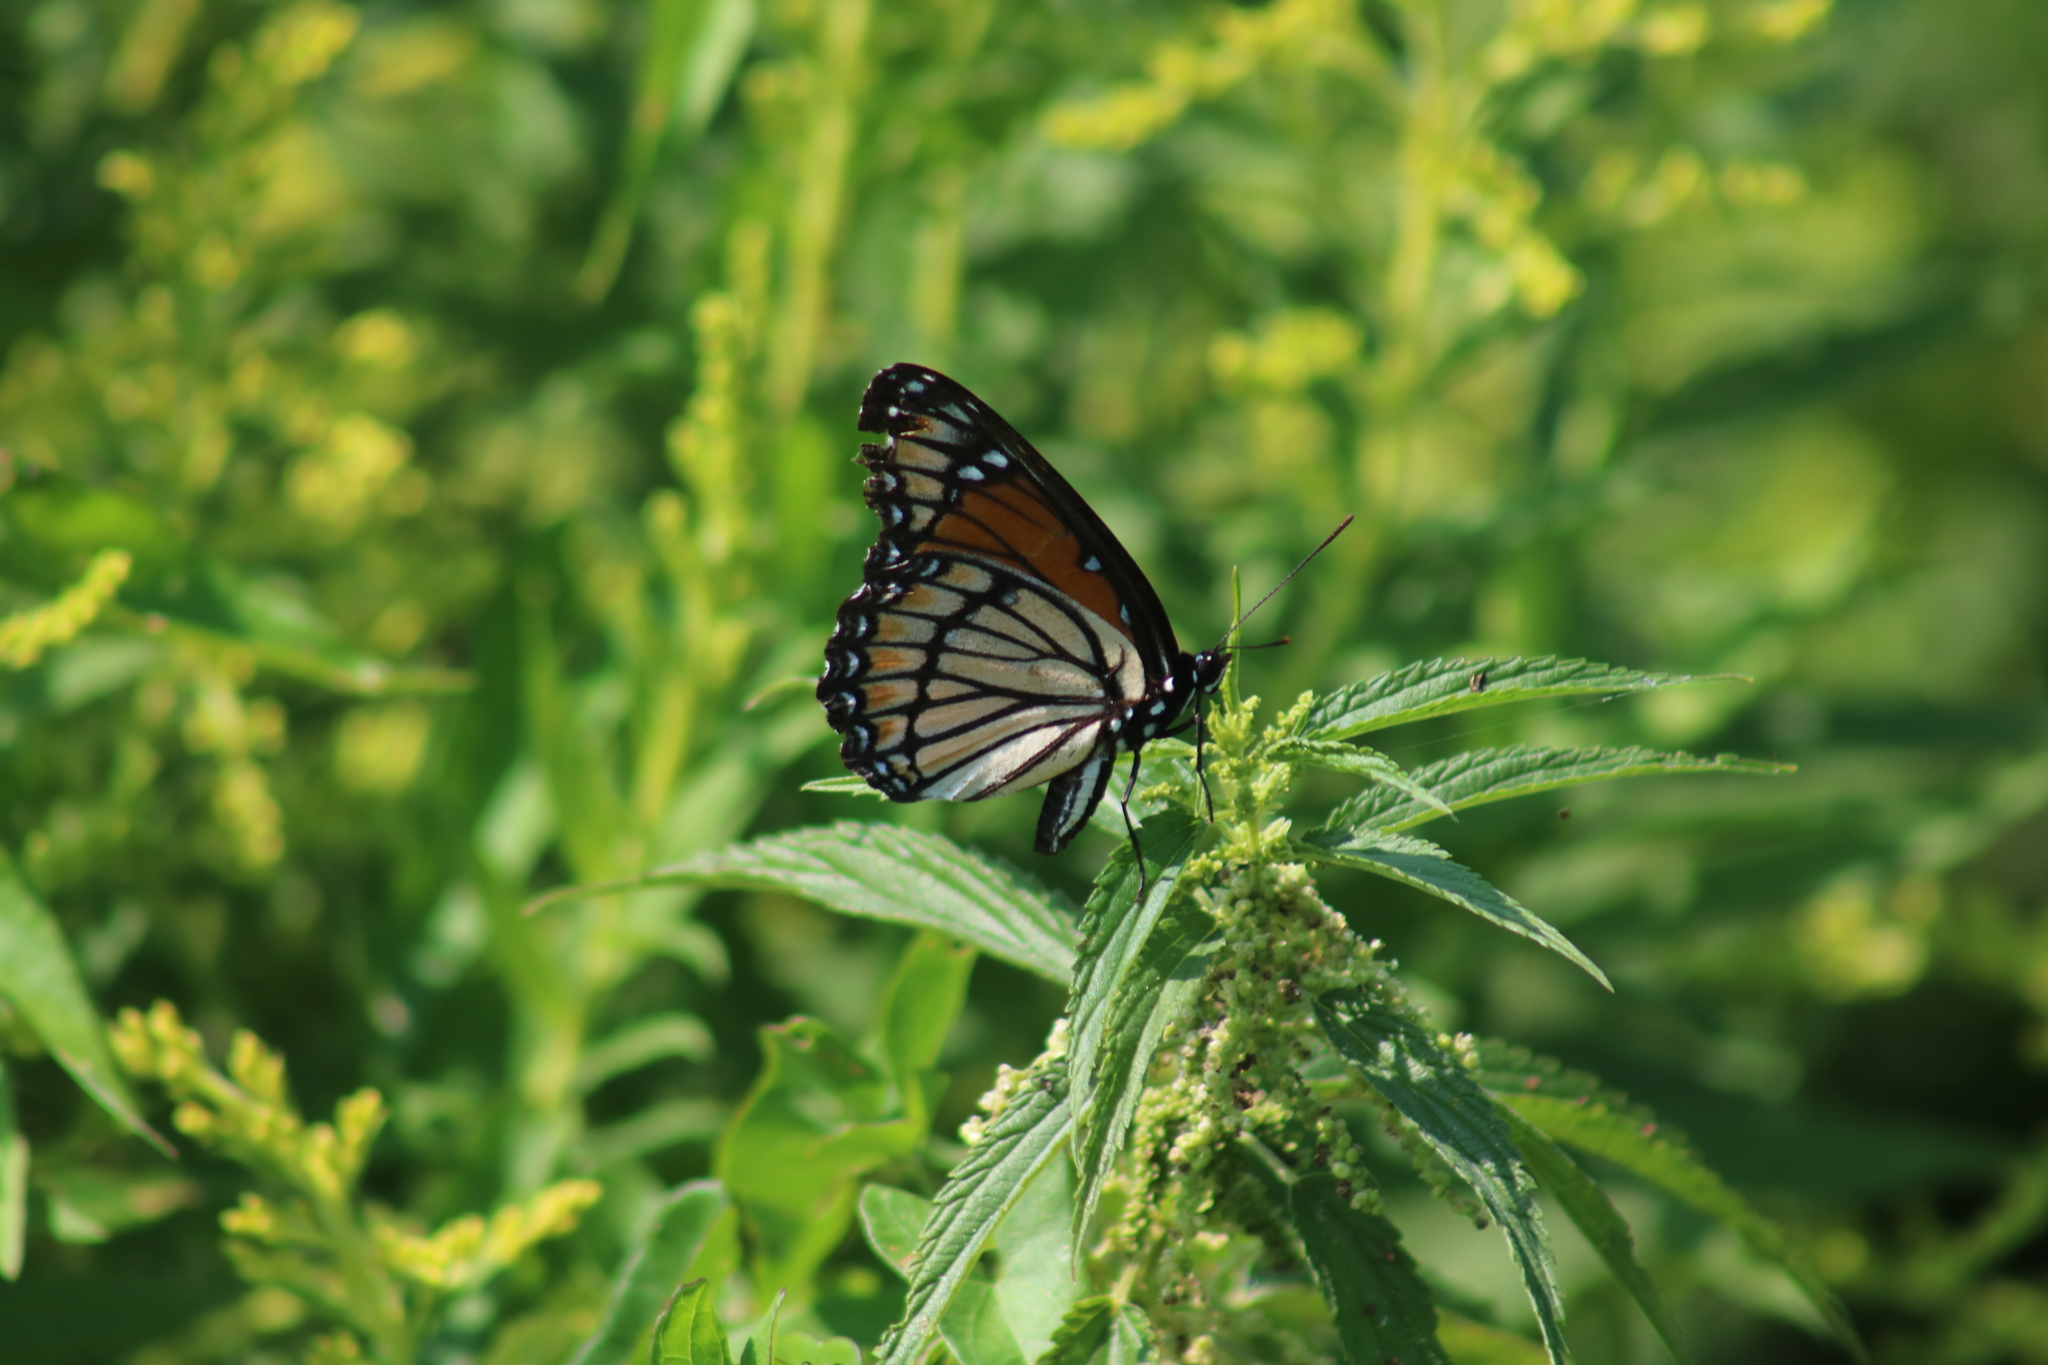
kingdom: Animalia
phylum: Arthropoda
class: Insecta
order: Lepidoptera
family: Nymphalidae
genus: Limenitis
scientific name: Limenitis archippus
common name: Viceroy
